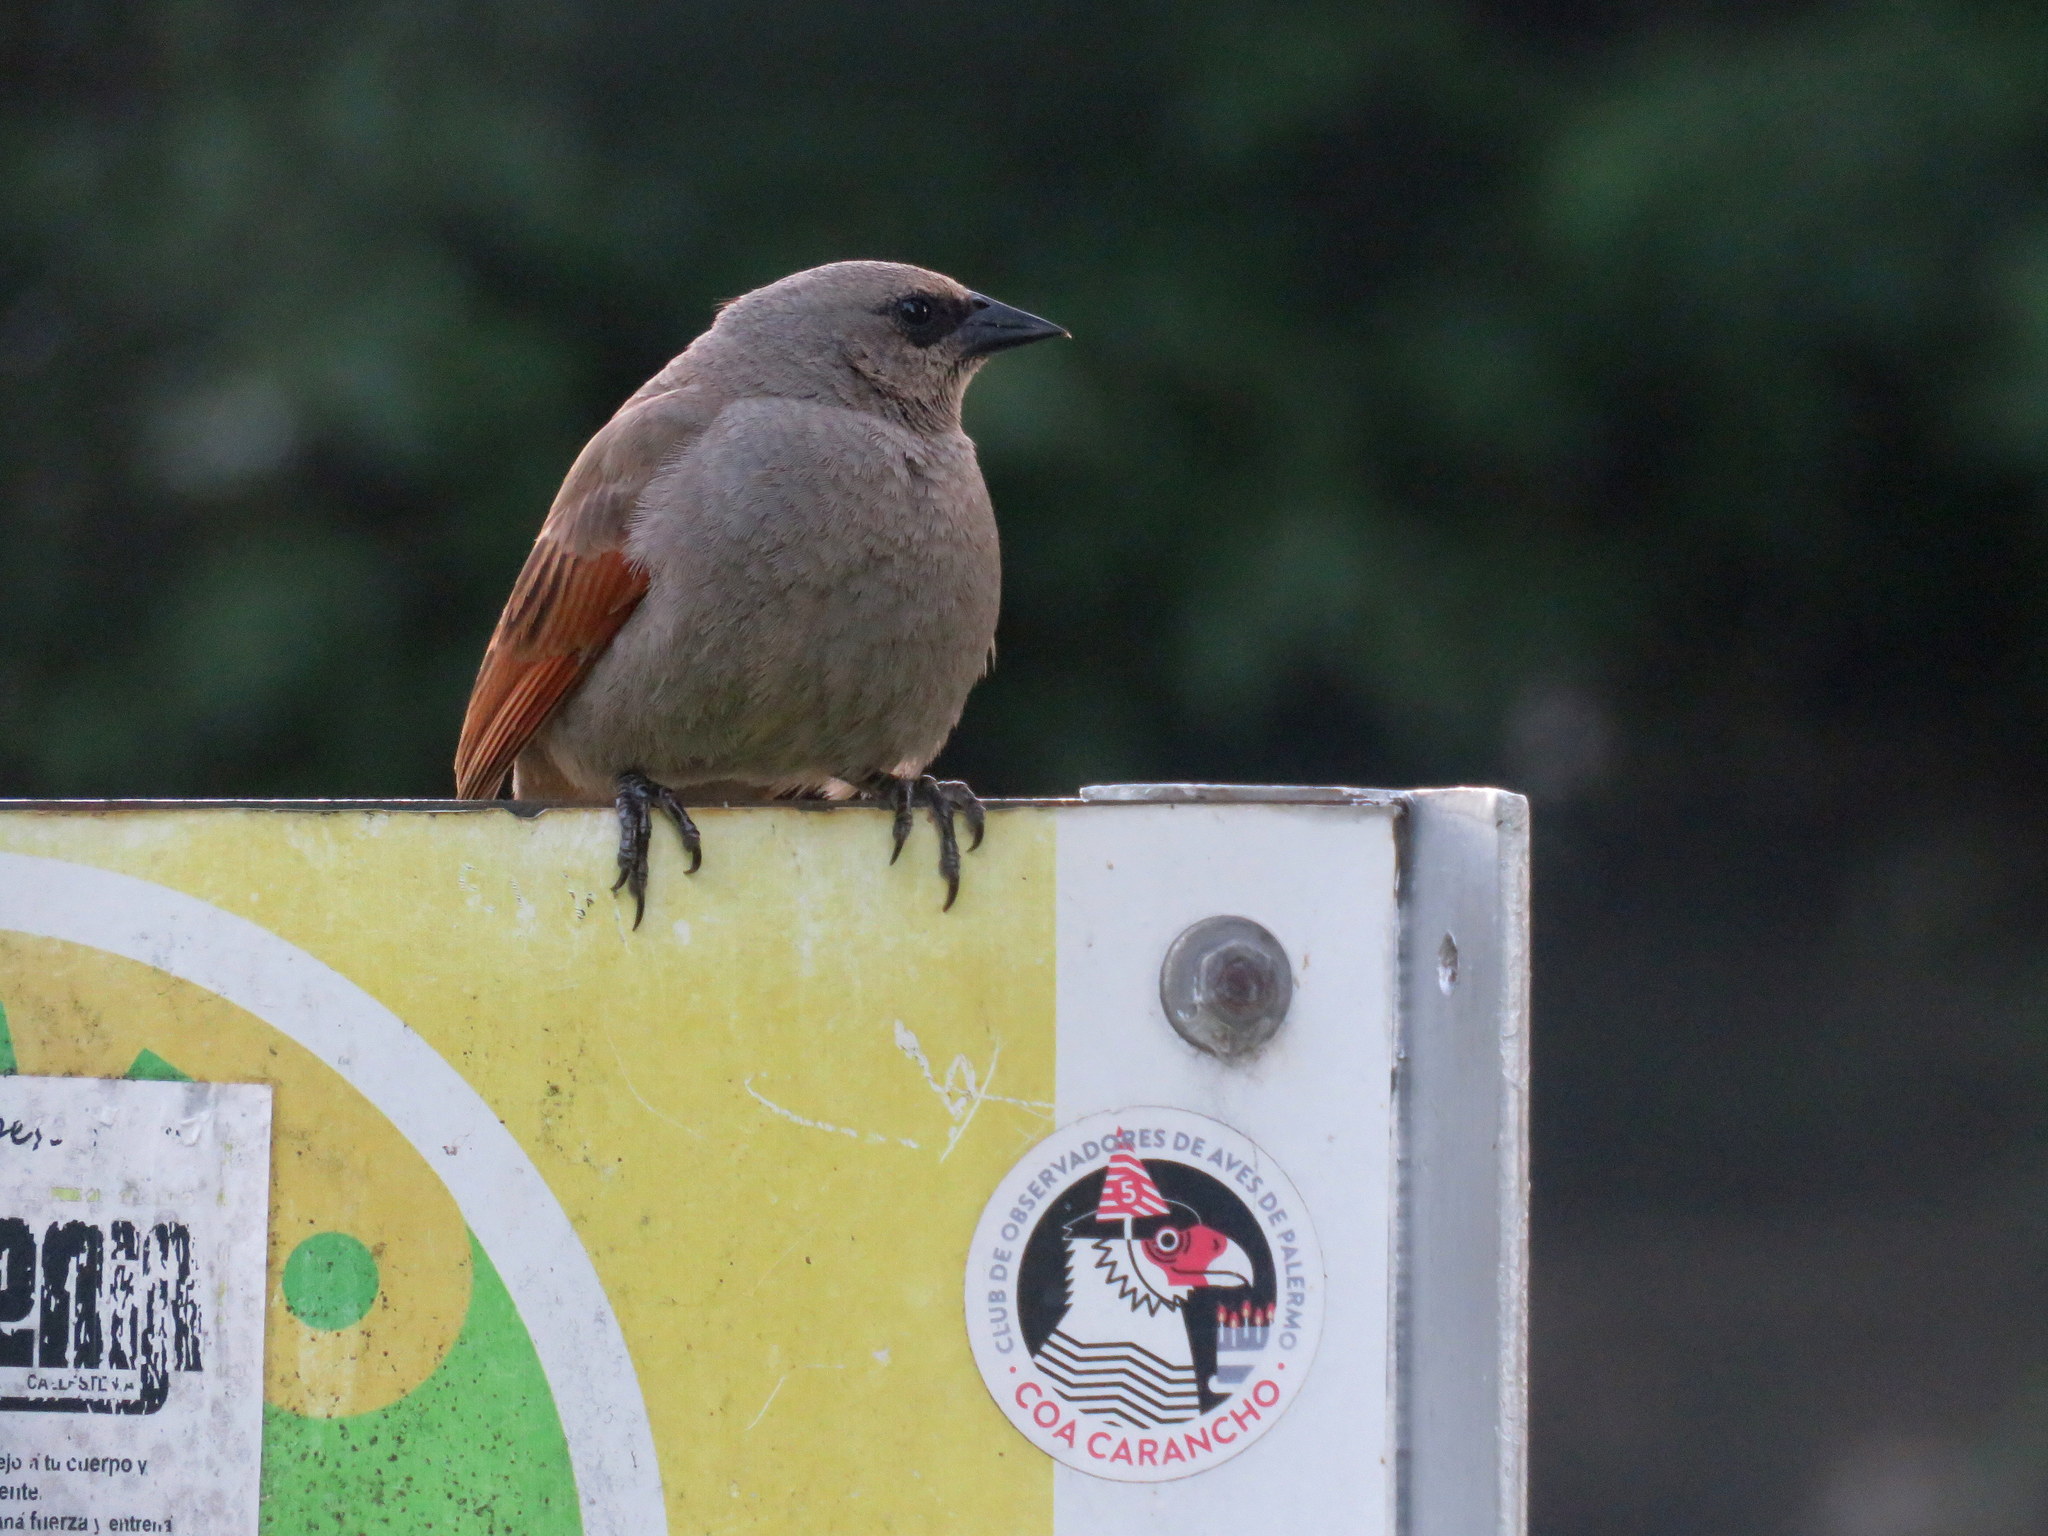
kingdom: Animalia
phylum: Chordata
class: Aves
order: Passeriformes
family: Icteridae
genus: Agelaioides
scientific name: Agelaioides badius
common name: Baywing
